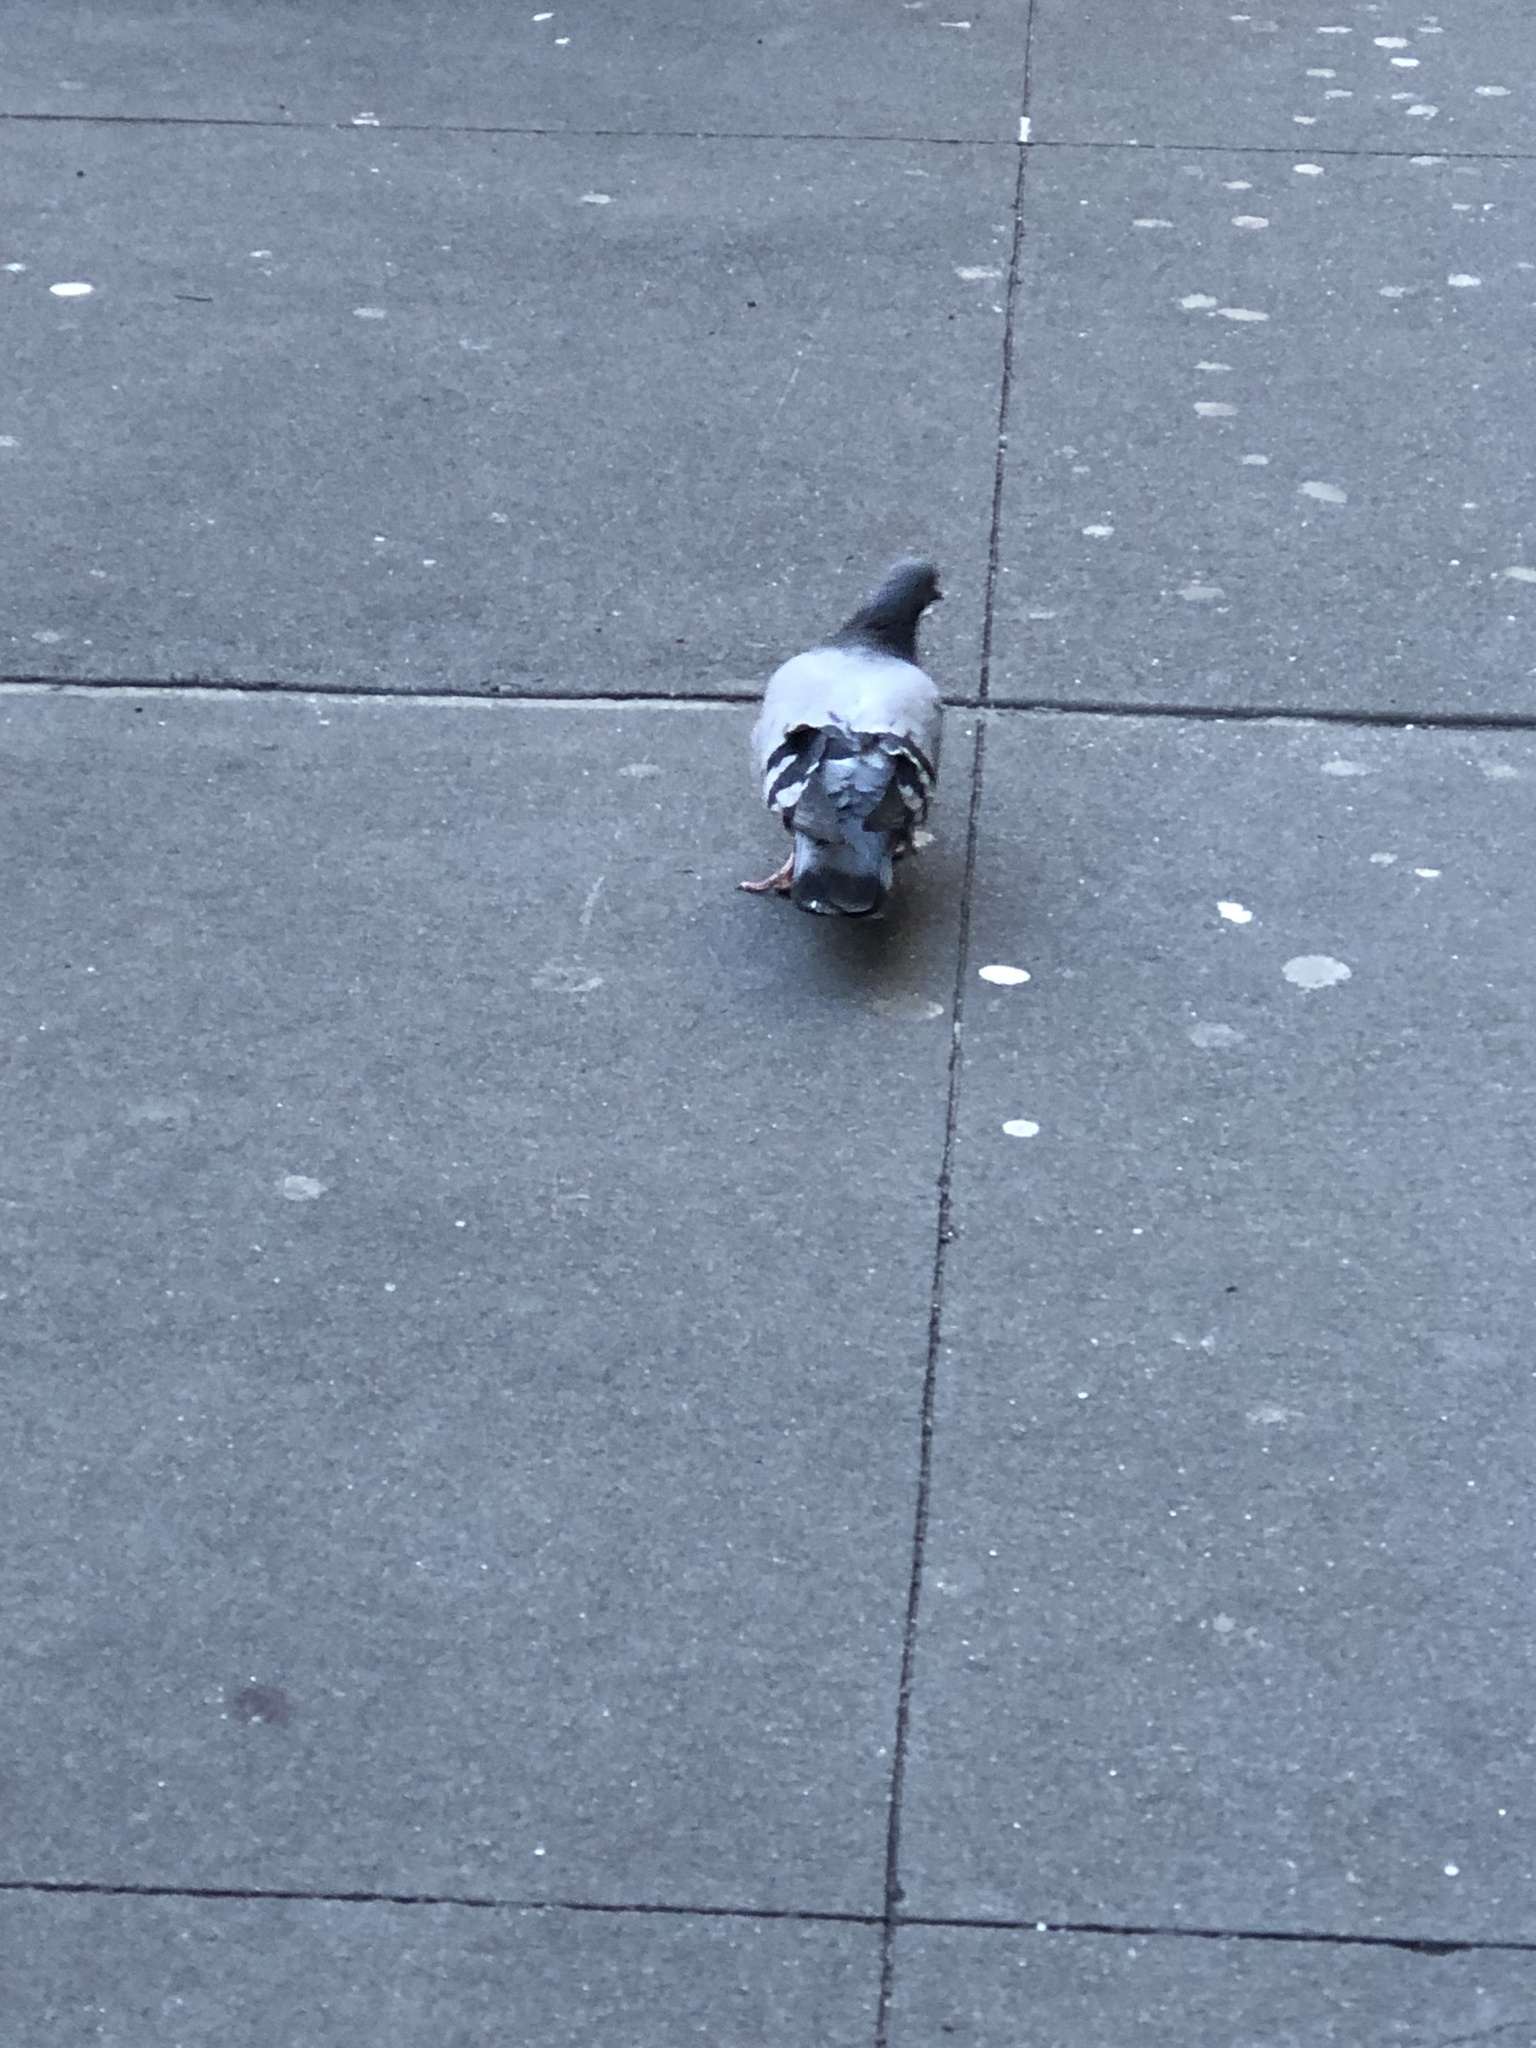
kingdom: Animalia
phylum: Chordata
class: Aves
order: Columbiformes
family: Columbidae
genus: Columba
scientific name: Columba livia
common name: Rock pigeon
